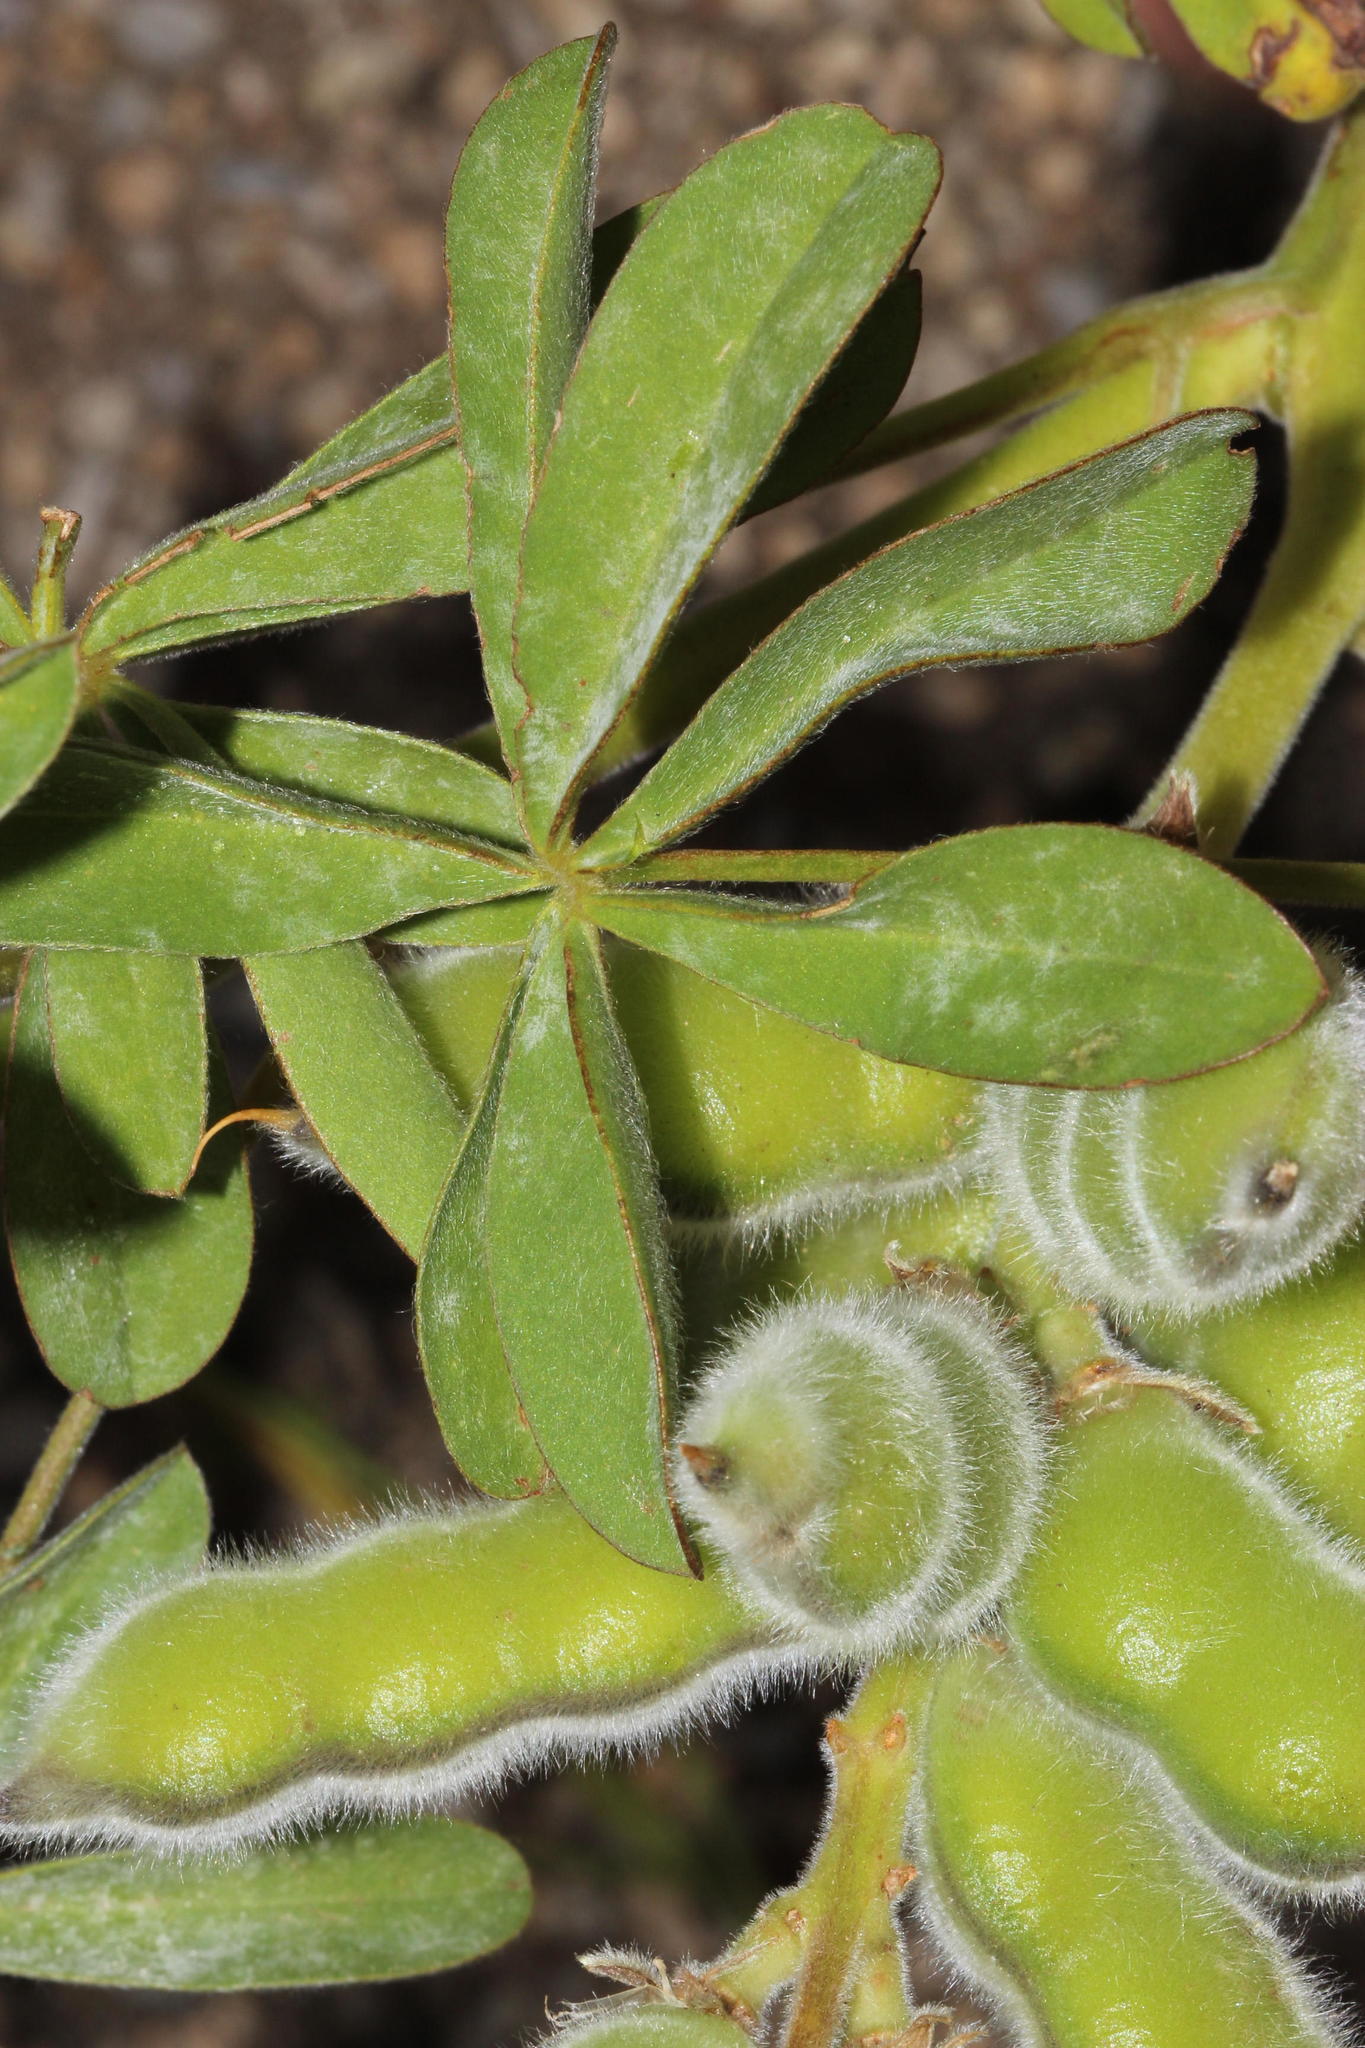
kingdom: Plantae
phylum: Tracheophyta
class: Magnoliopsida
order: Fabales
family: Fabaceae
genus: Lupinus
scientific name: Lupinus luteus
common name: European yellow lupine
